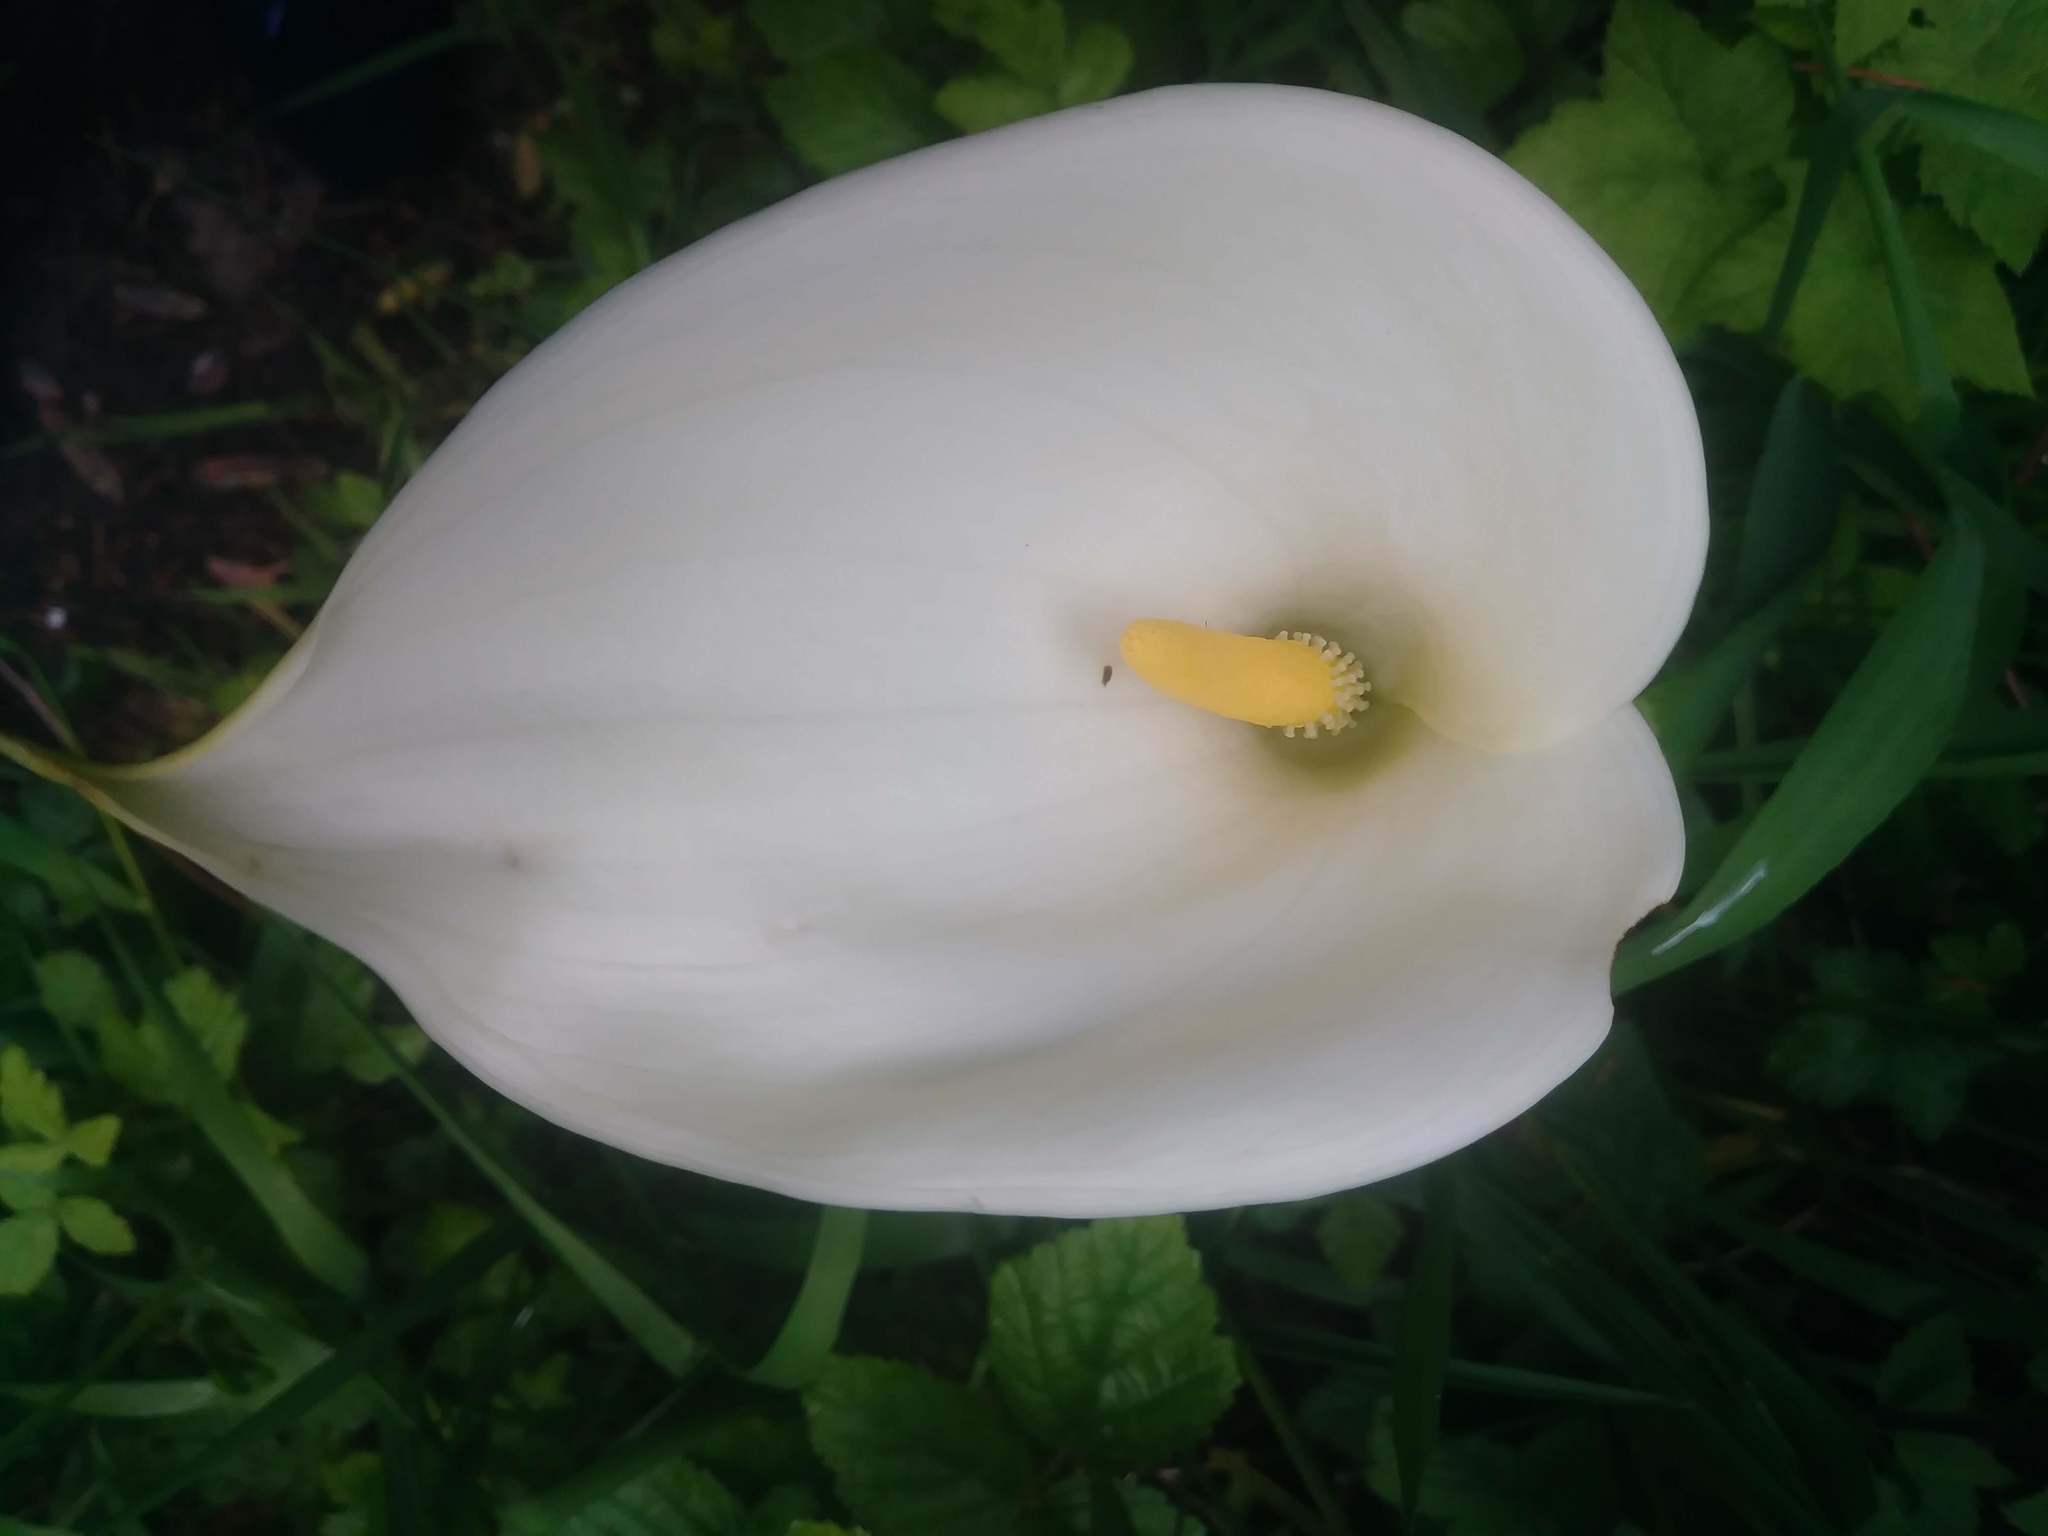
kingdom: Plantae
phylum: Tracheophyta
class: Liliopsida
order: Alismatales
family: Araceae
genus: Zantedeschia
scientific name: Zantedeschia aethiopica
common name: Altar-lily
